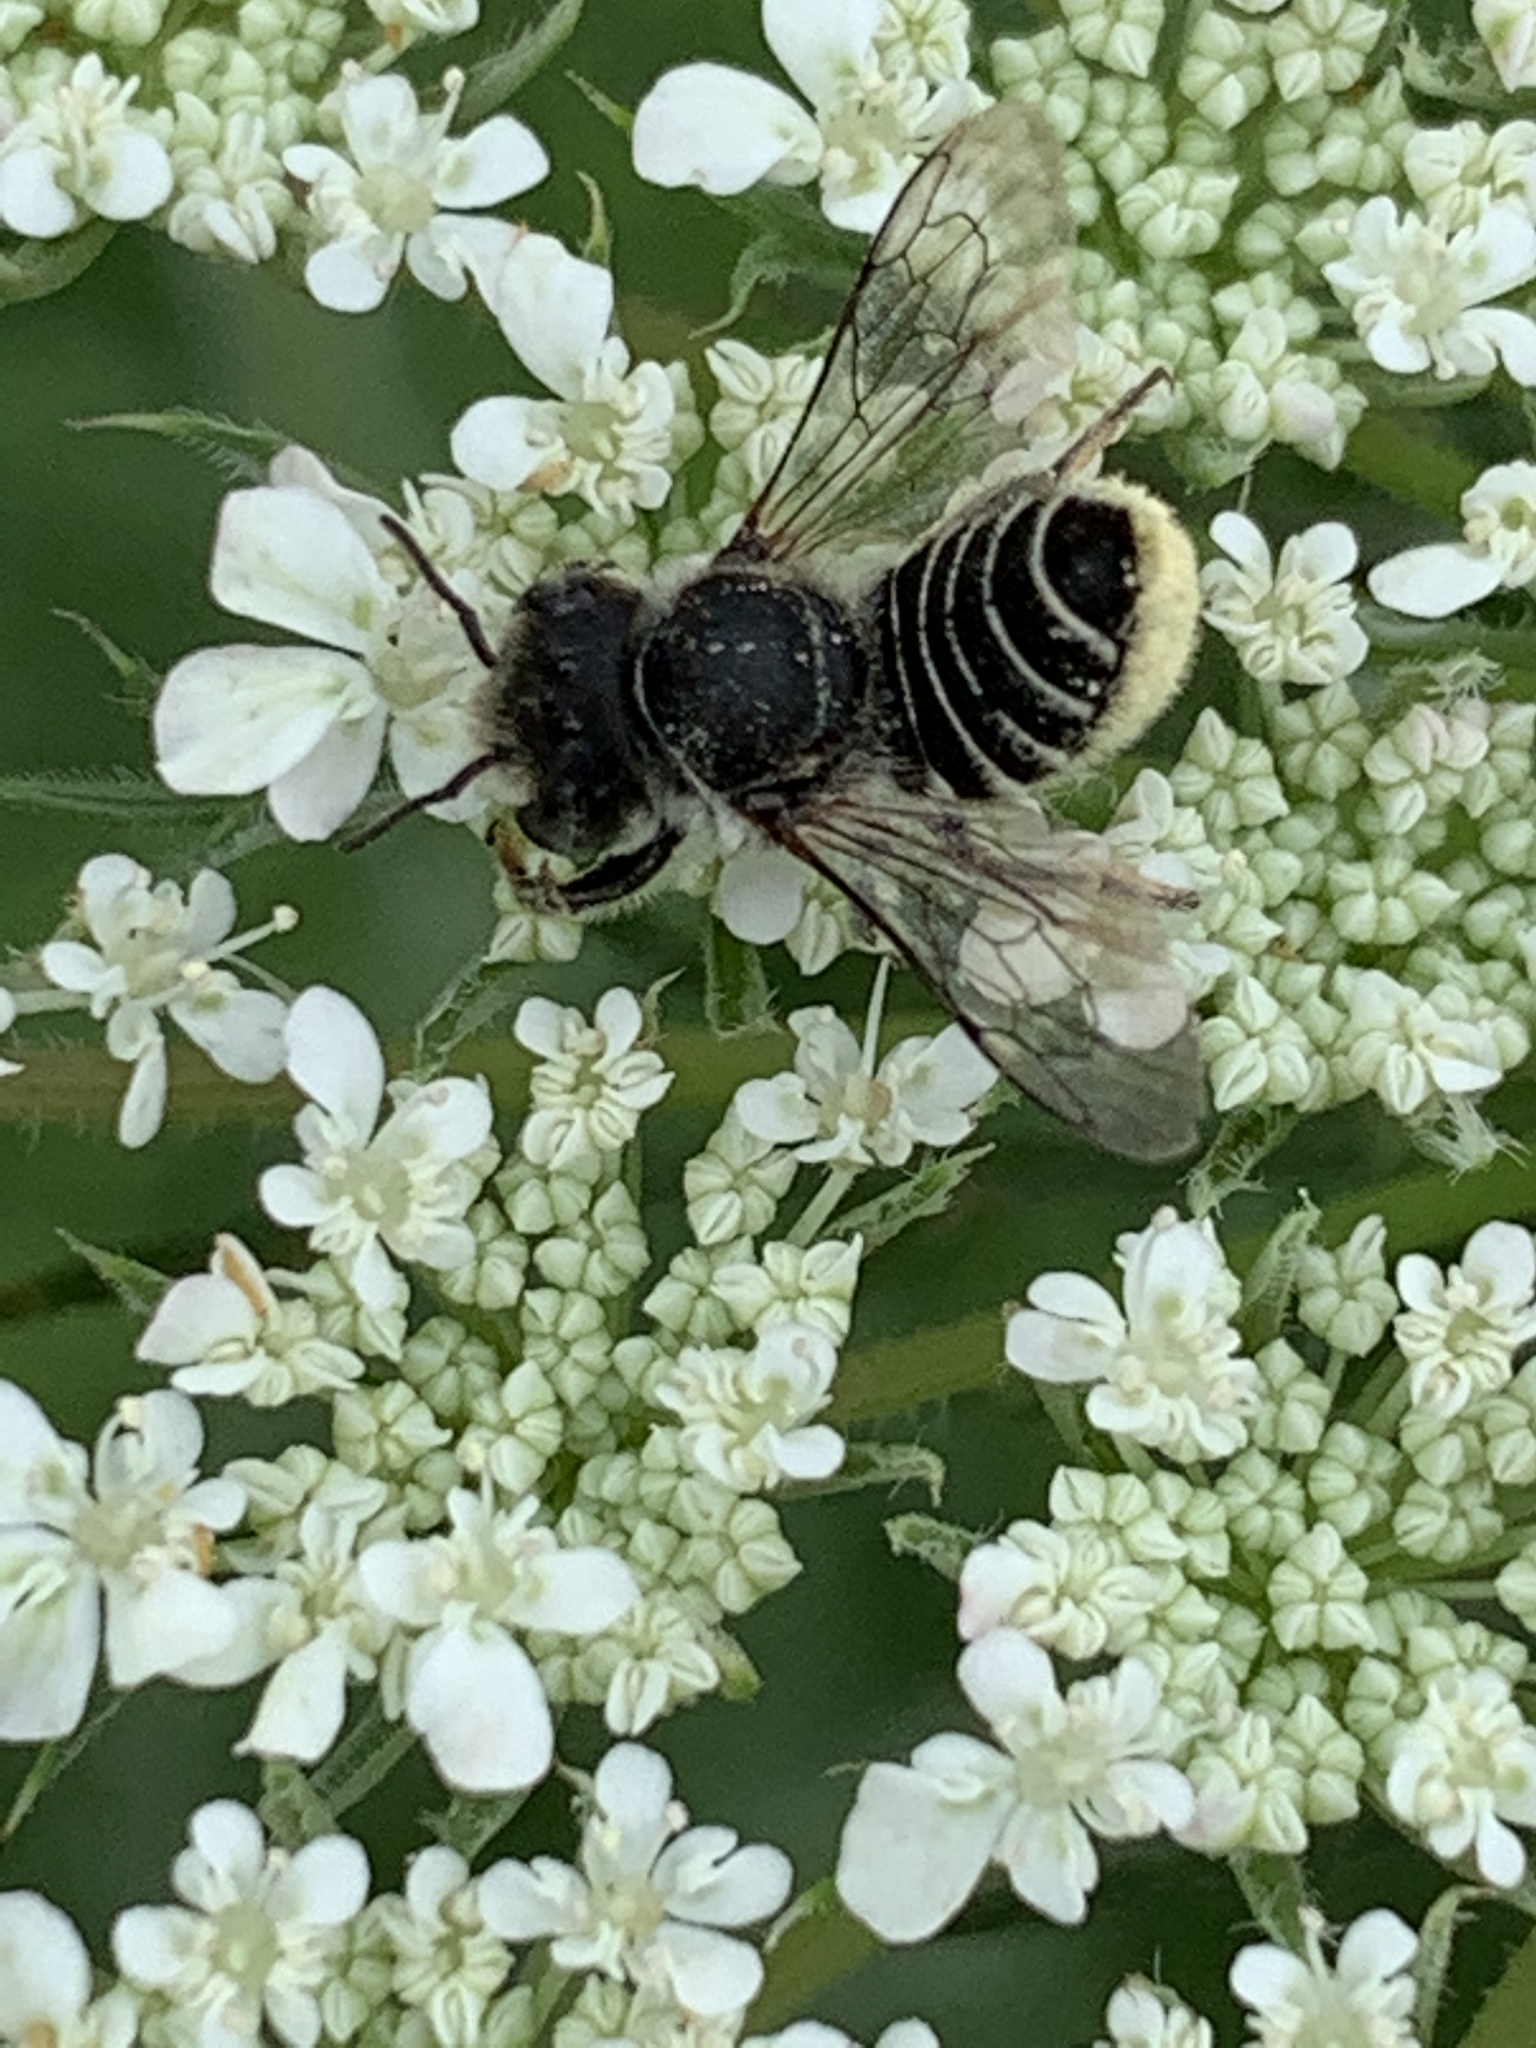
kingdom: Animalia
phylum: Arthropoda
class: Insecta
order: Hymenoptera
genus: Eutricharaea
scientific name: Eutricharaea
